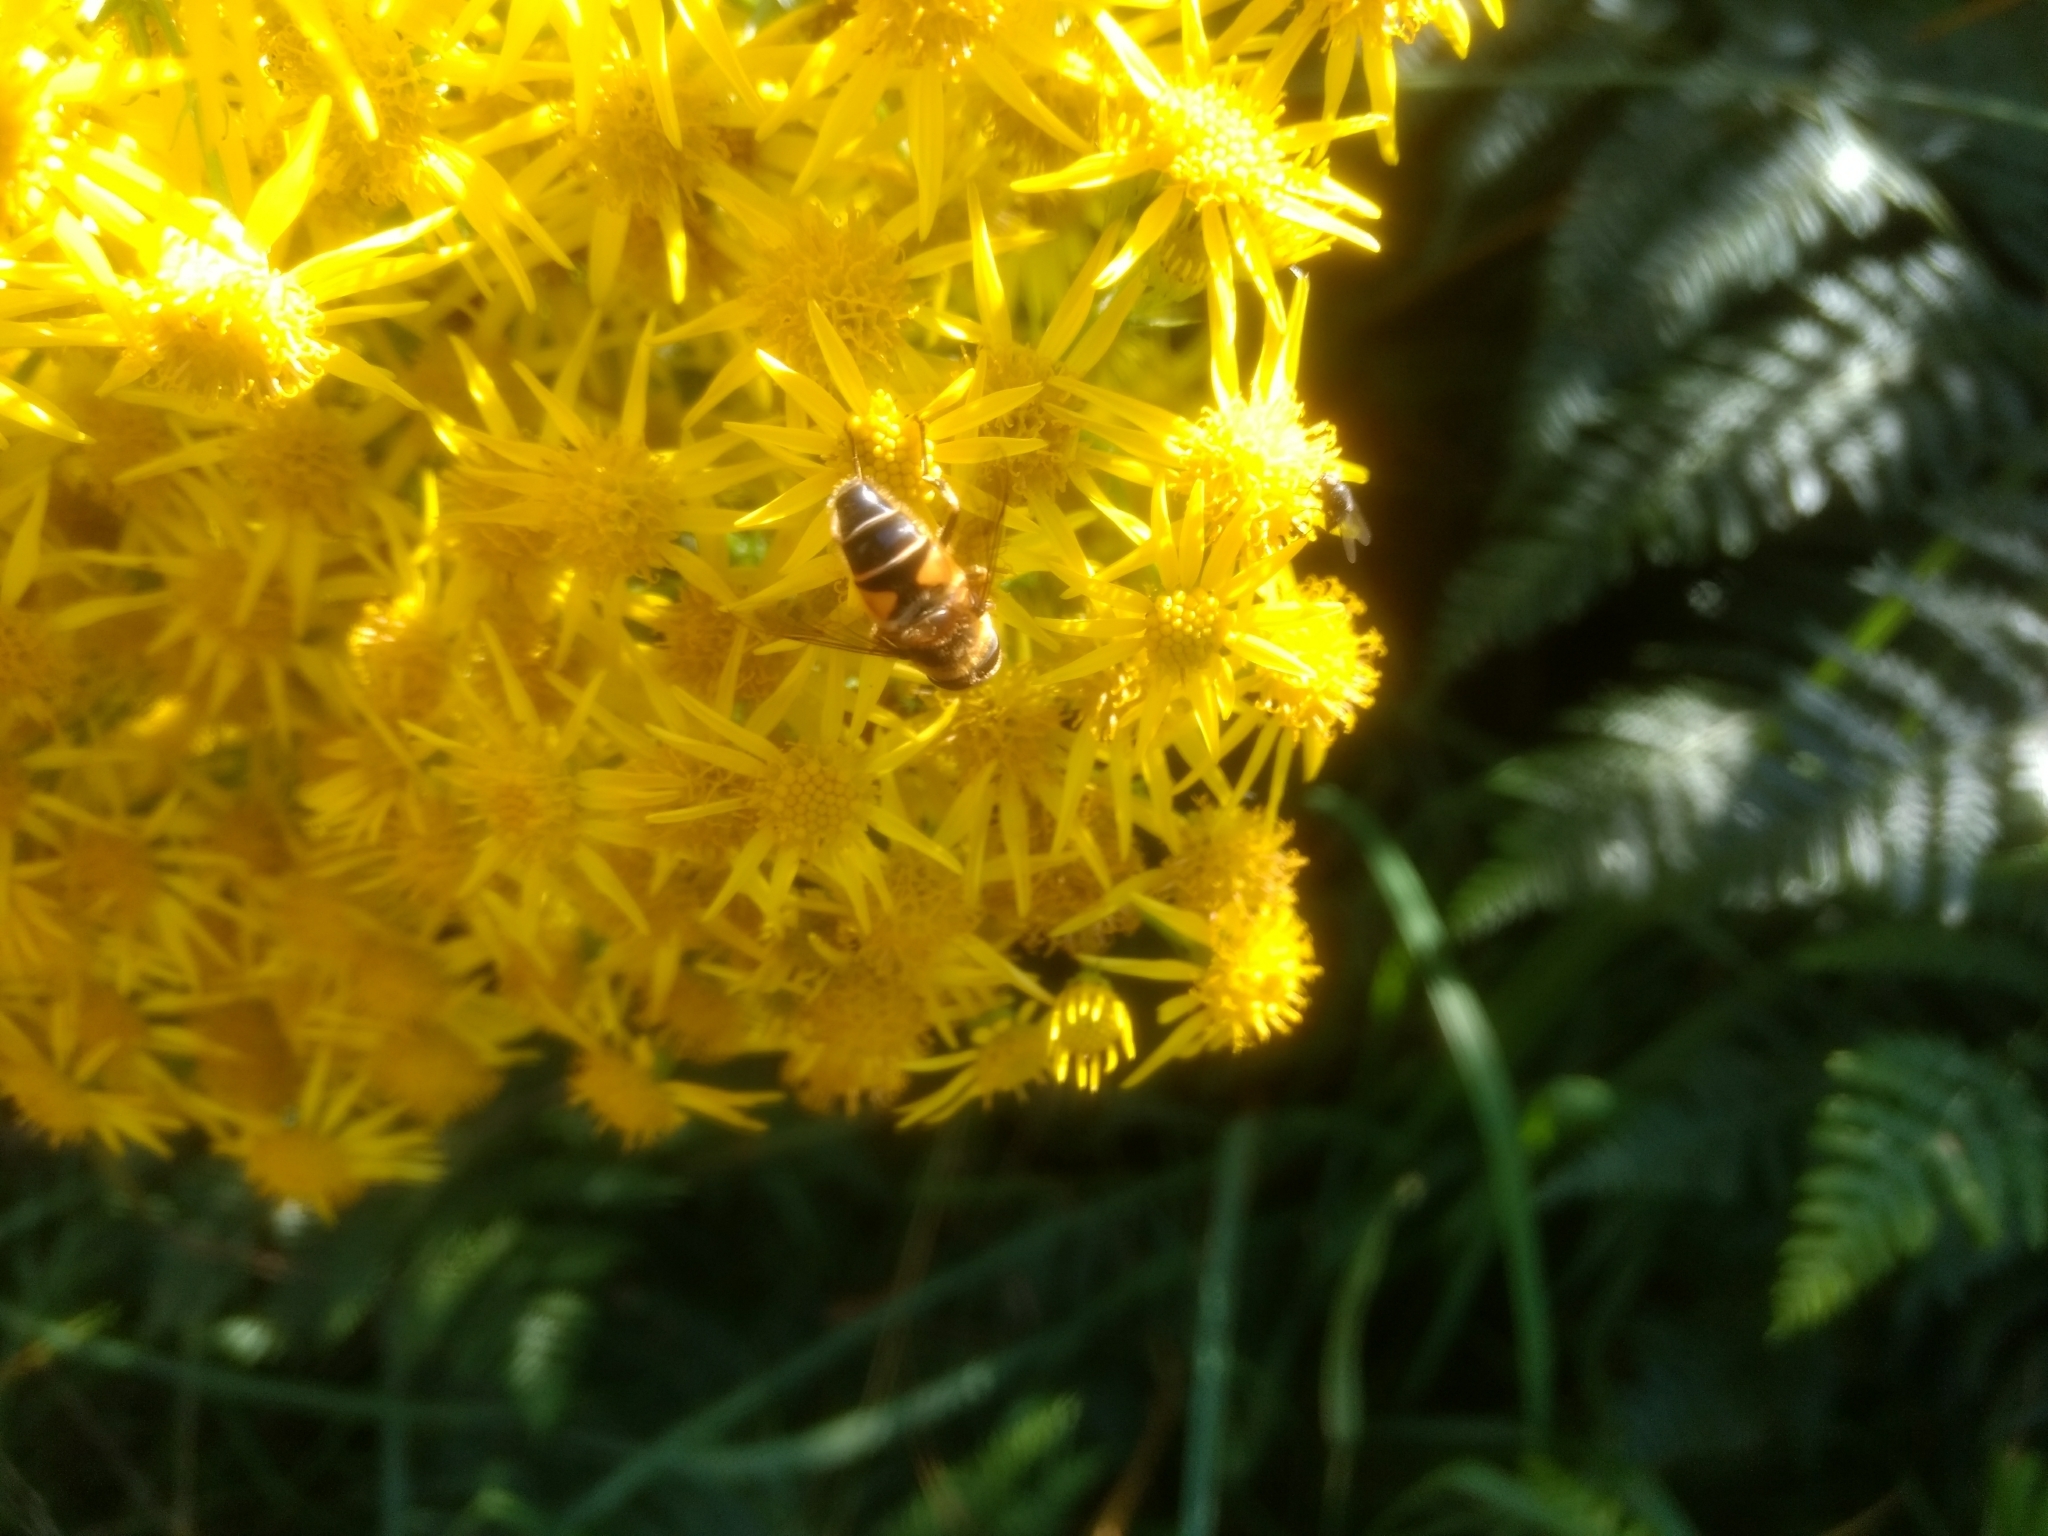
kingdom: Animalia
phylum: Arthropoda
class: Insecta
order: Diptera
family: Syrphidae
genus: Eristalis
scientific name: Eristalis pertinax
